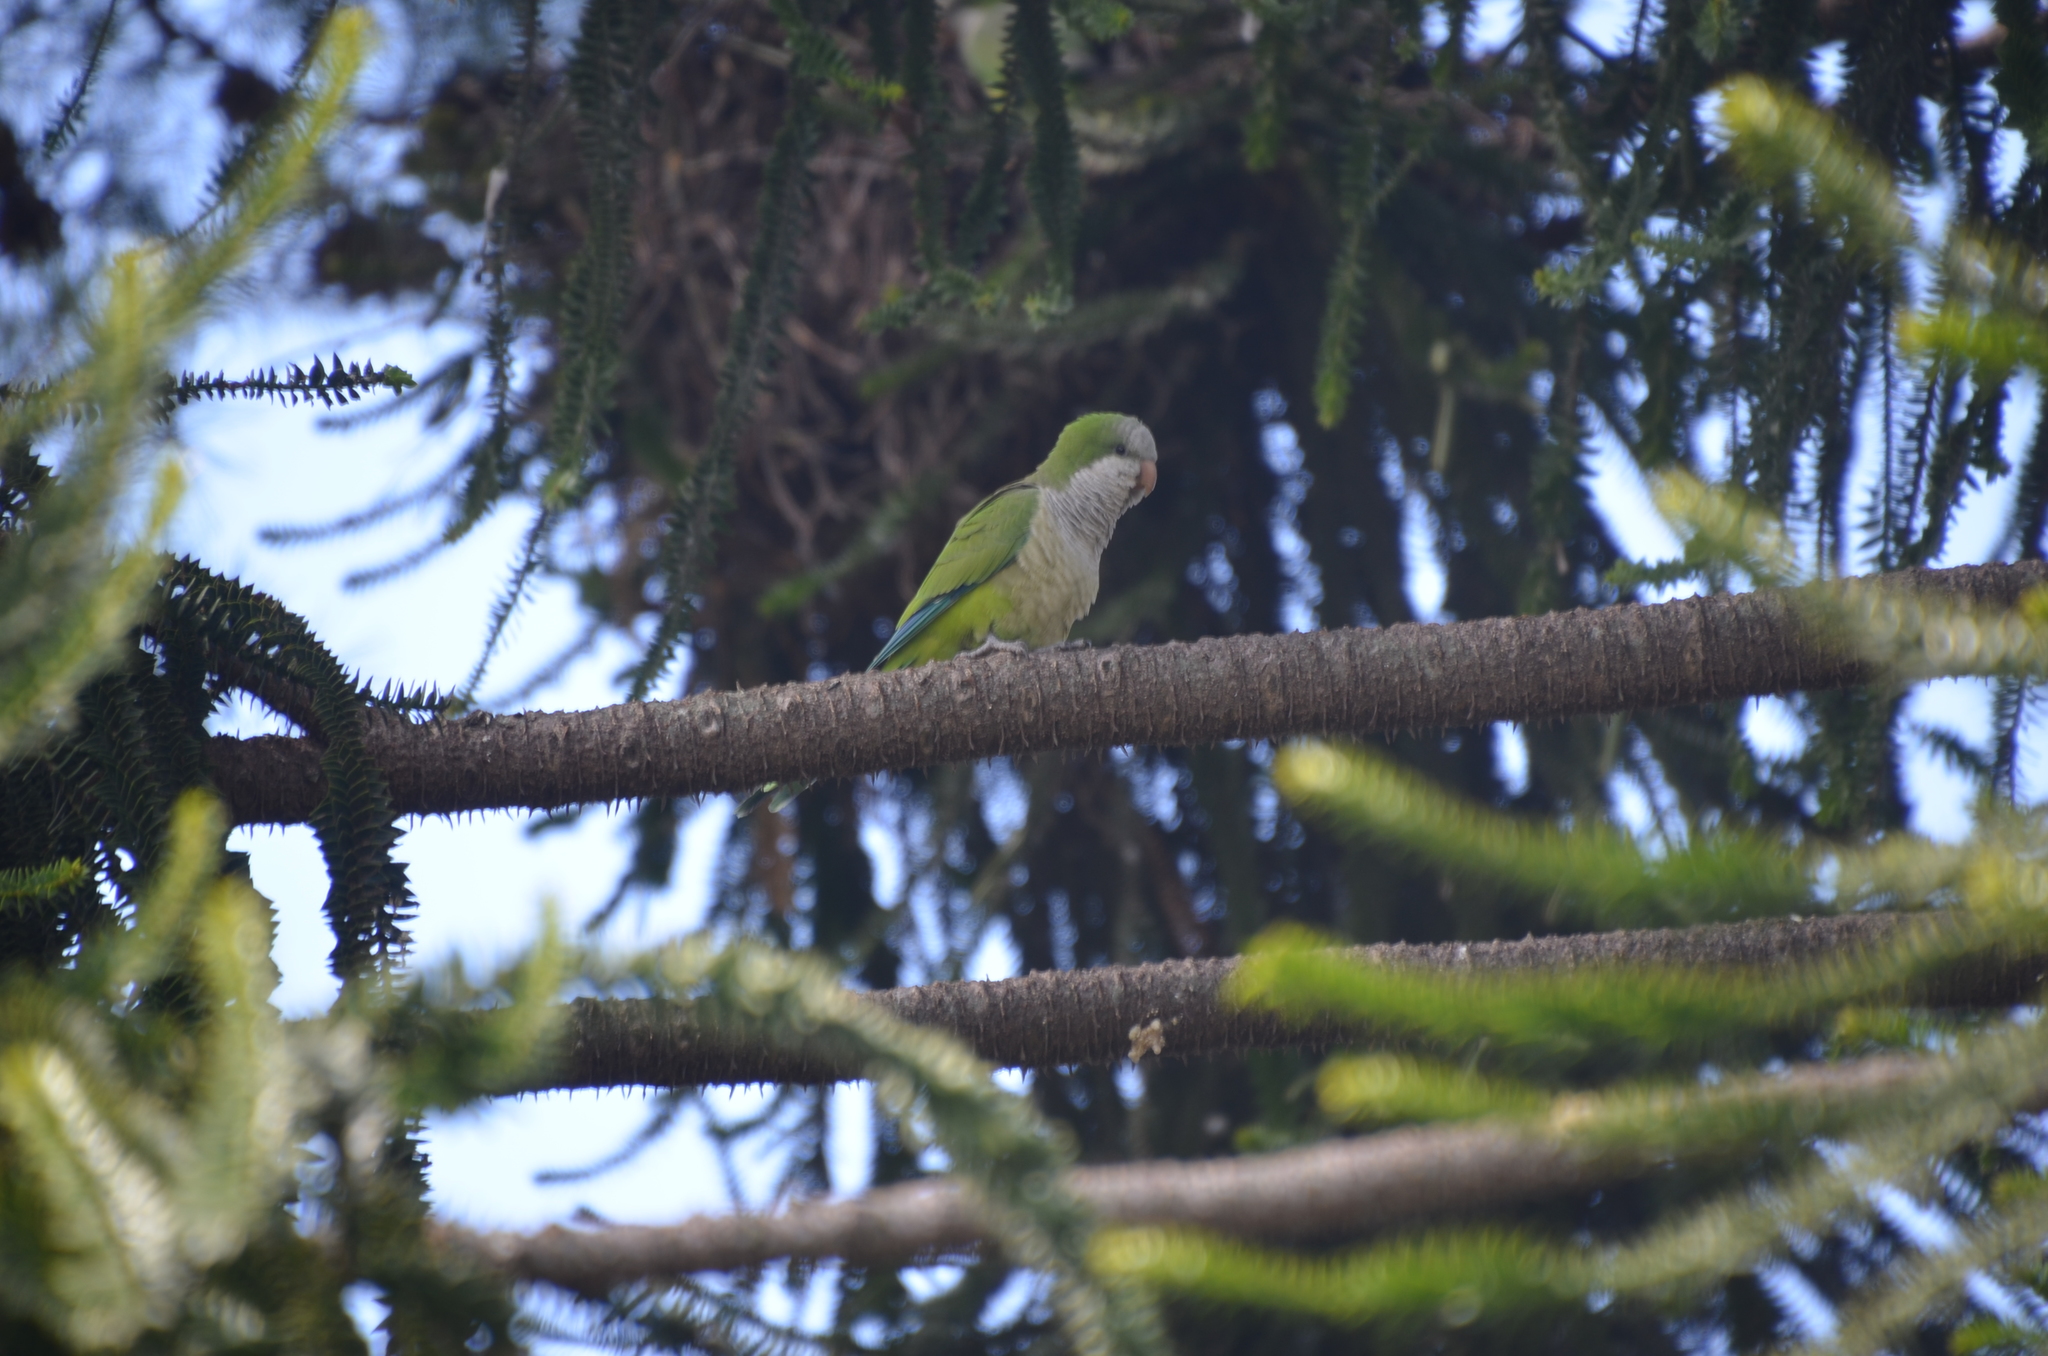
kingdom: Animalia
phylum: Chordata
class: Aves
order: Psittaciformes
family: Psittacidae
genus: Myiopsitta
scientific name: Myiopsitta monachus
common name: Monk parakeet
